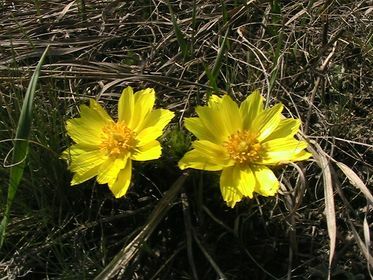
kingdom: Plantae
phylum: Tracheophyta
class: Magnoliopsida
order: Ranunculales
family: Ranunculaceae
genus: Adonis
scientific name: Adonis vernalis
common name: Yellow pheasants-eye
